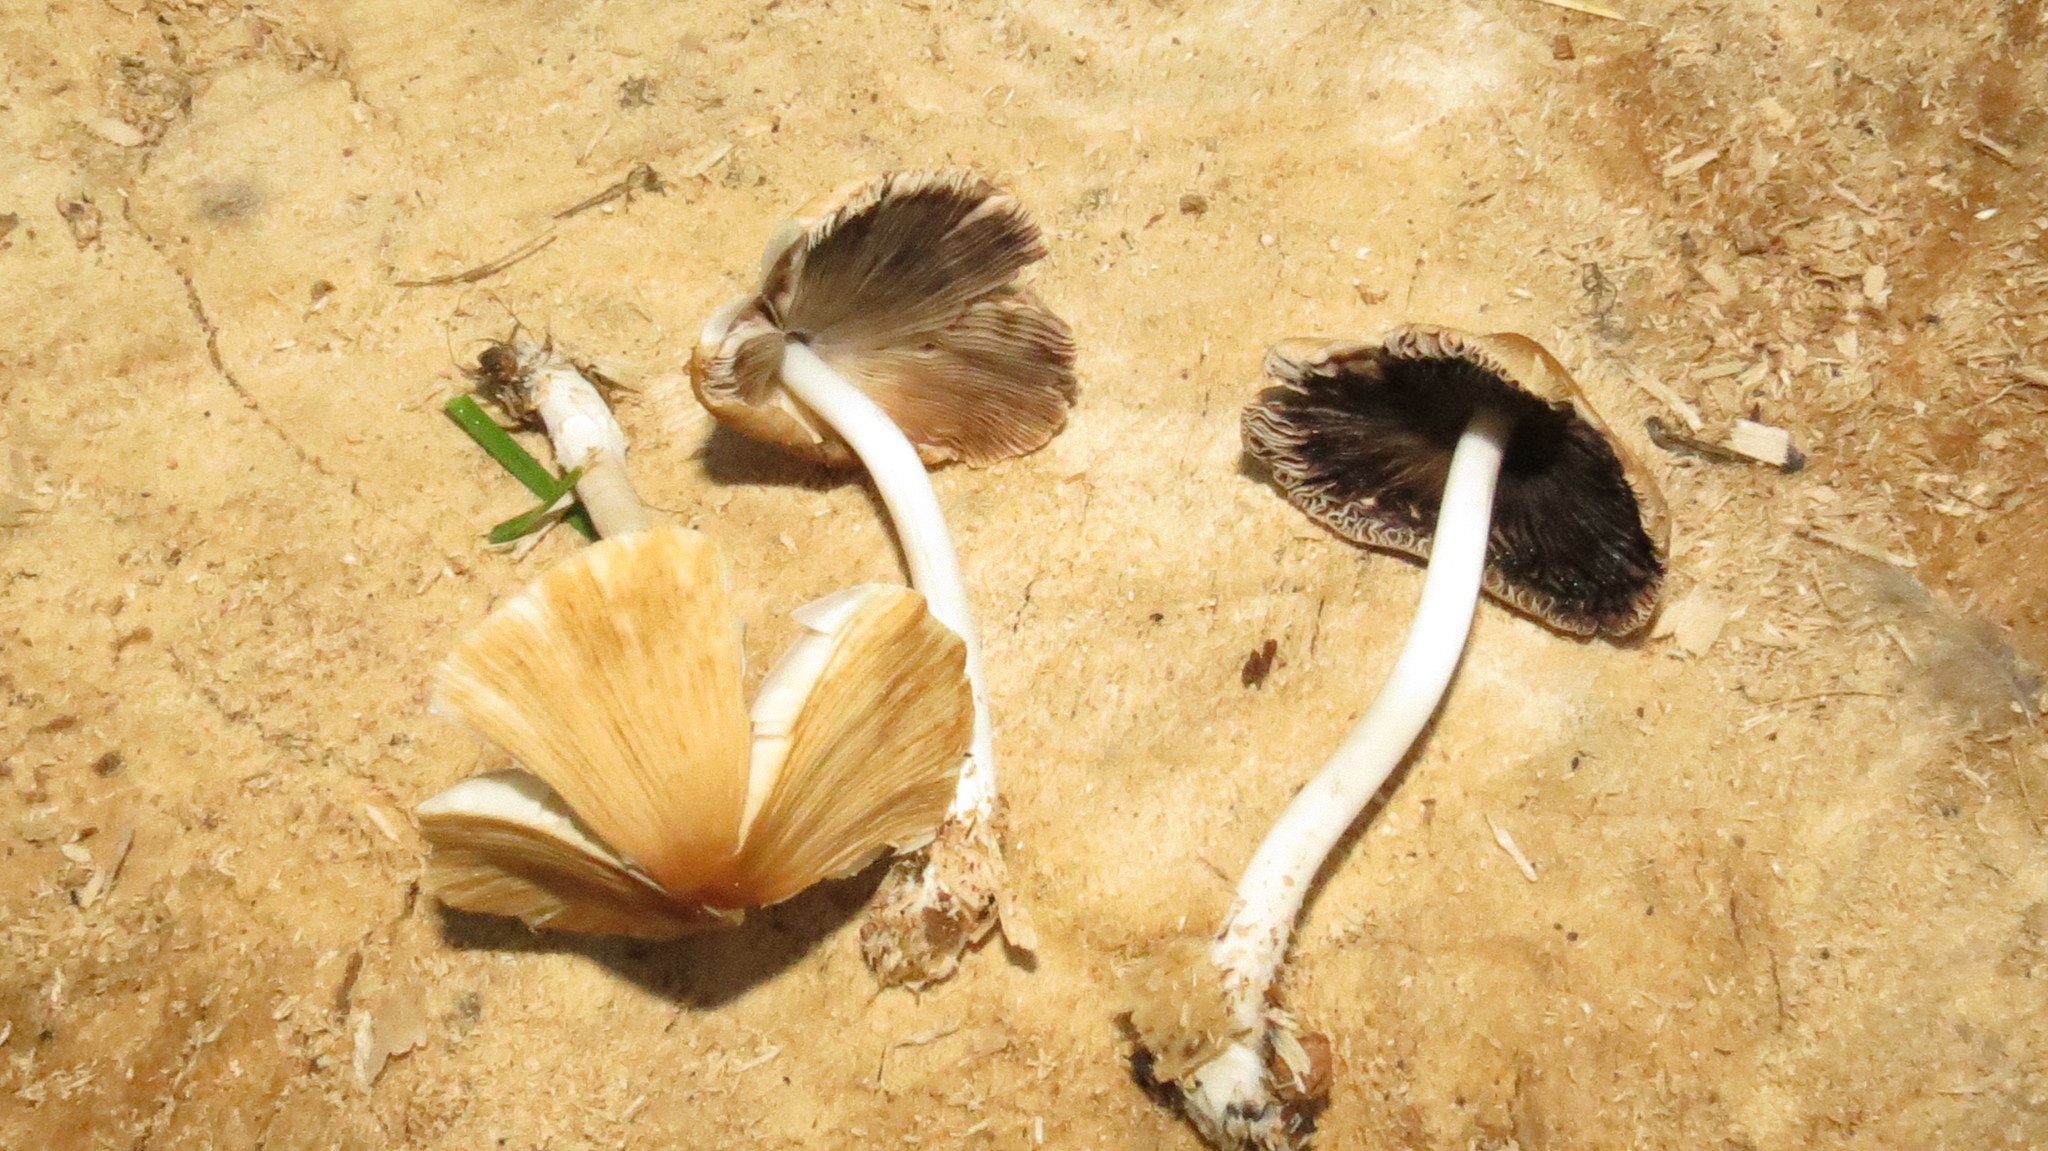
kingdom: Fungi
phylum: Basidiomycota
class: Agaricomycetes
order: Agaricales
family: Psathyrellaceae
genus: Coprinellus
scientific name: Coprinellus micaceus
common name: Glistening ink-cap
